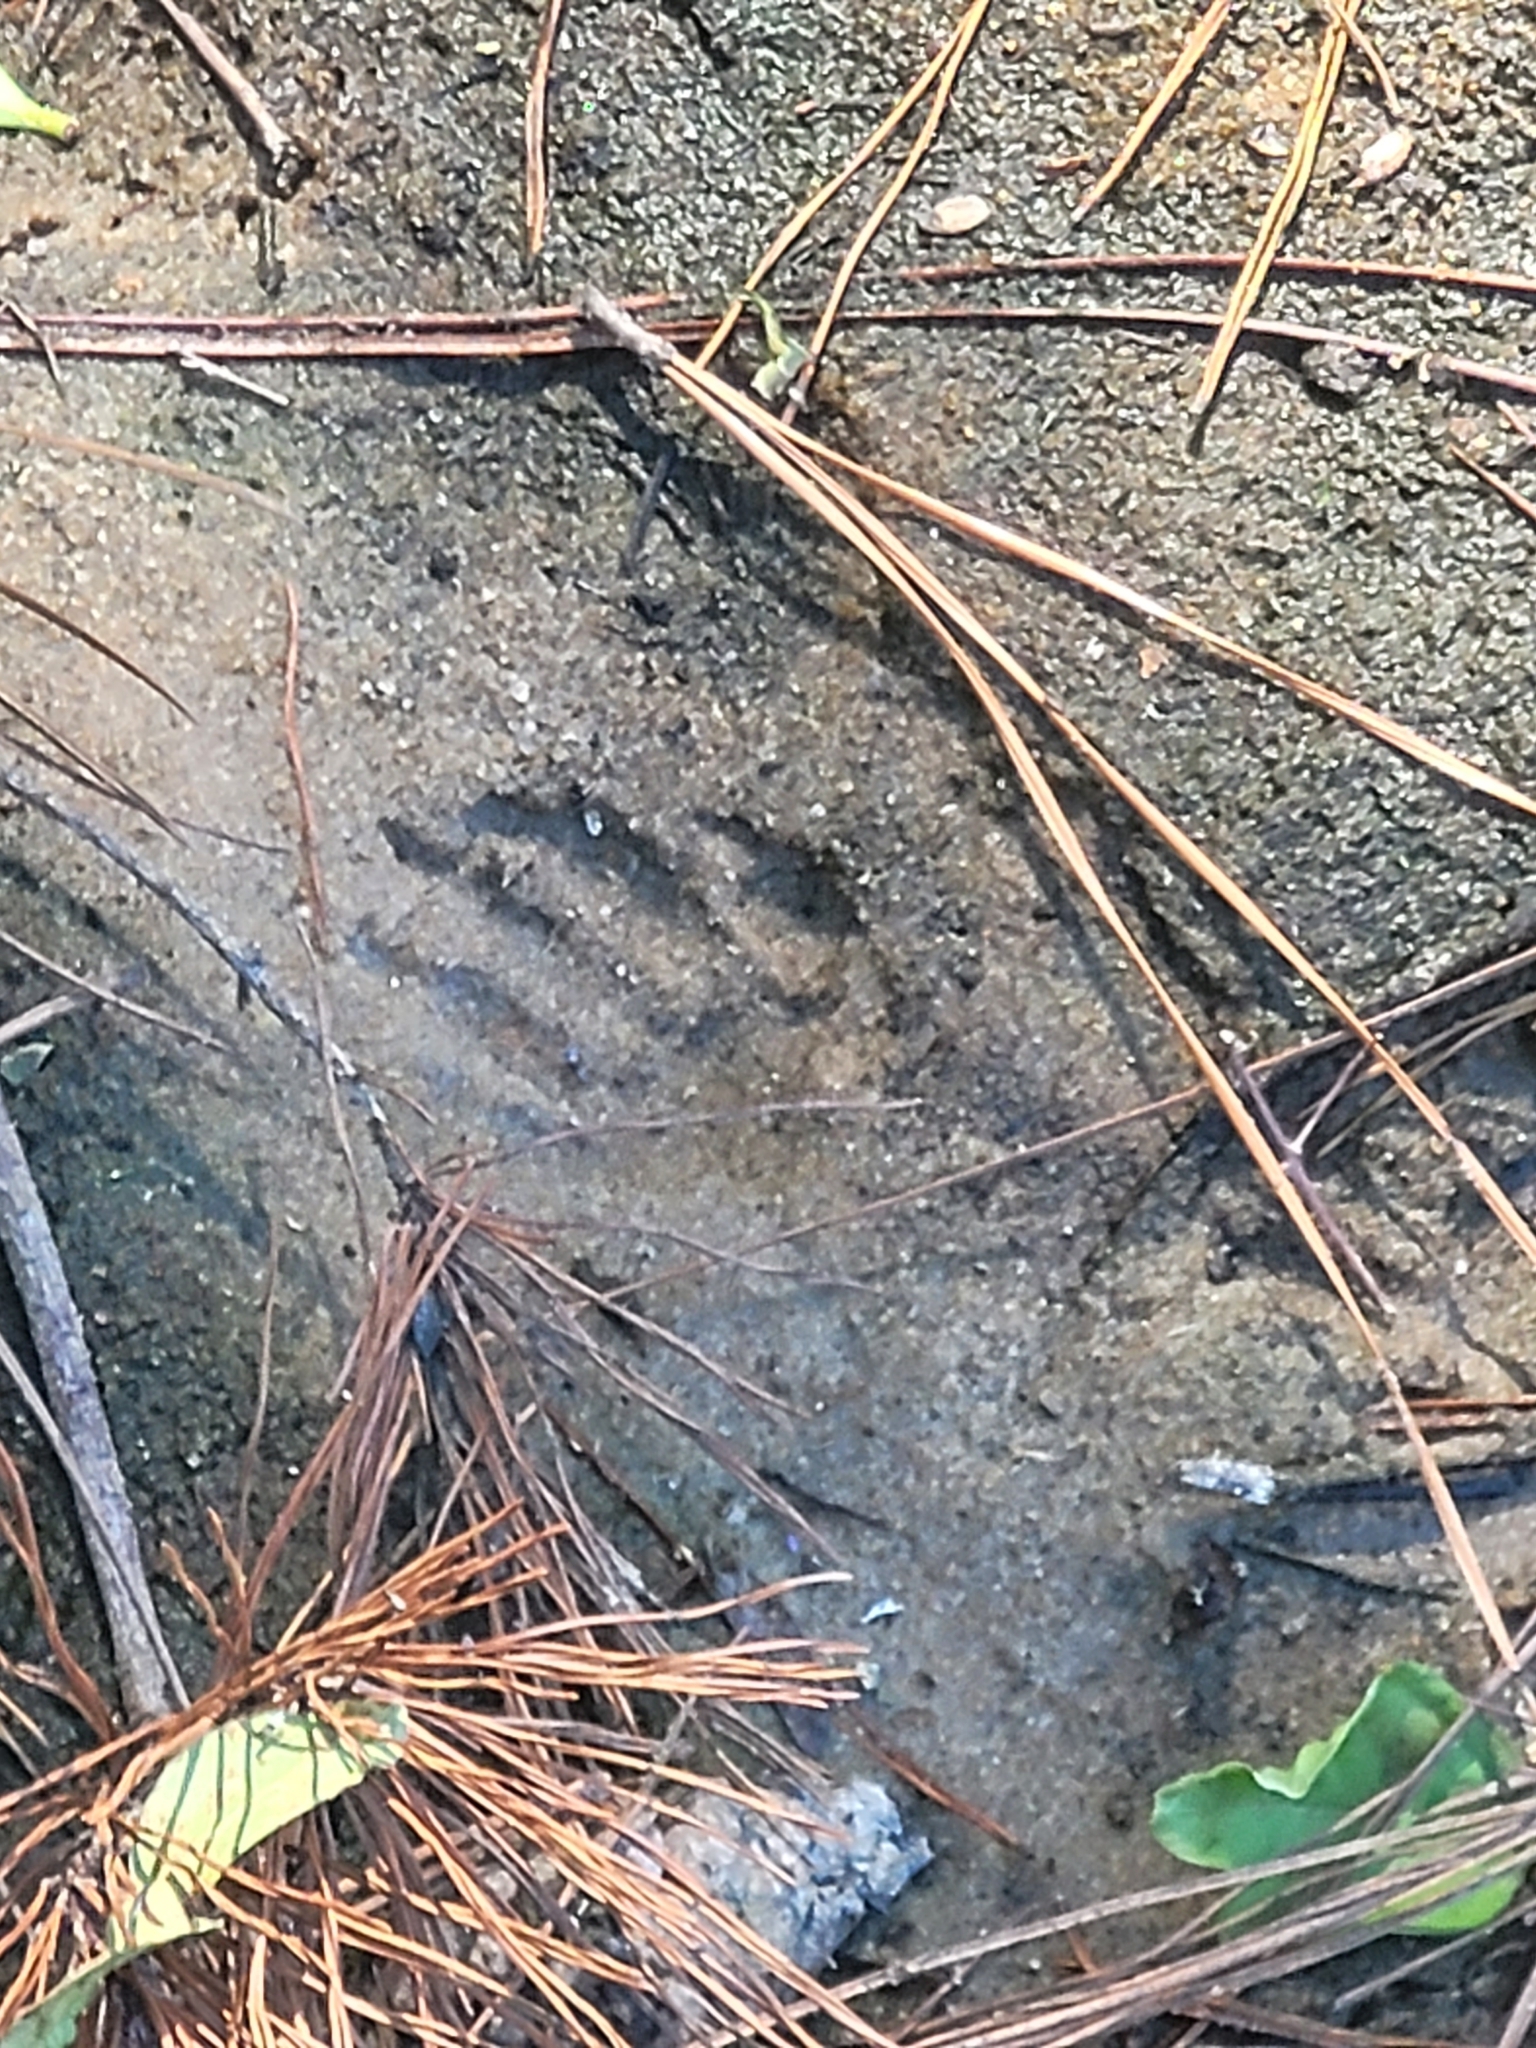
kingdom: Animalia
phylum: Chordata
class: Mammalia
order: Carnivora
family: Procyonidae
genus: Procyon
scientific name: Procyon lotor
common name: Raccoon
